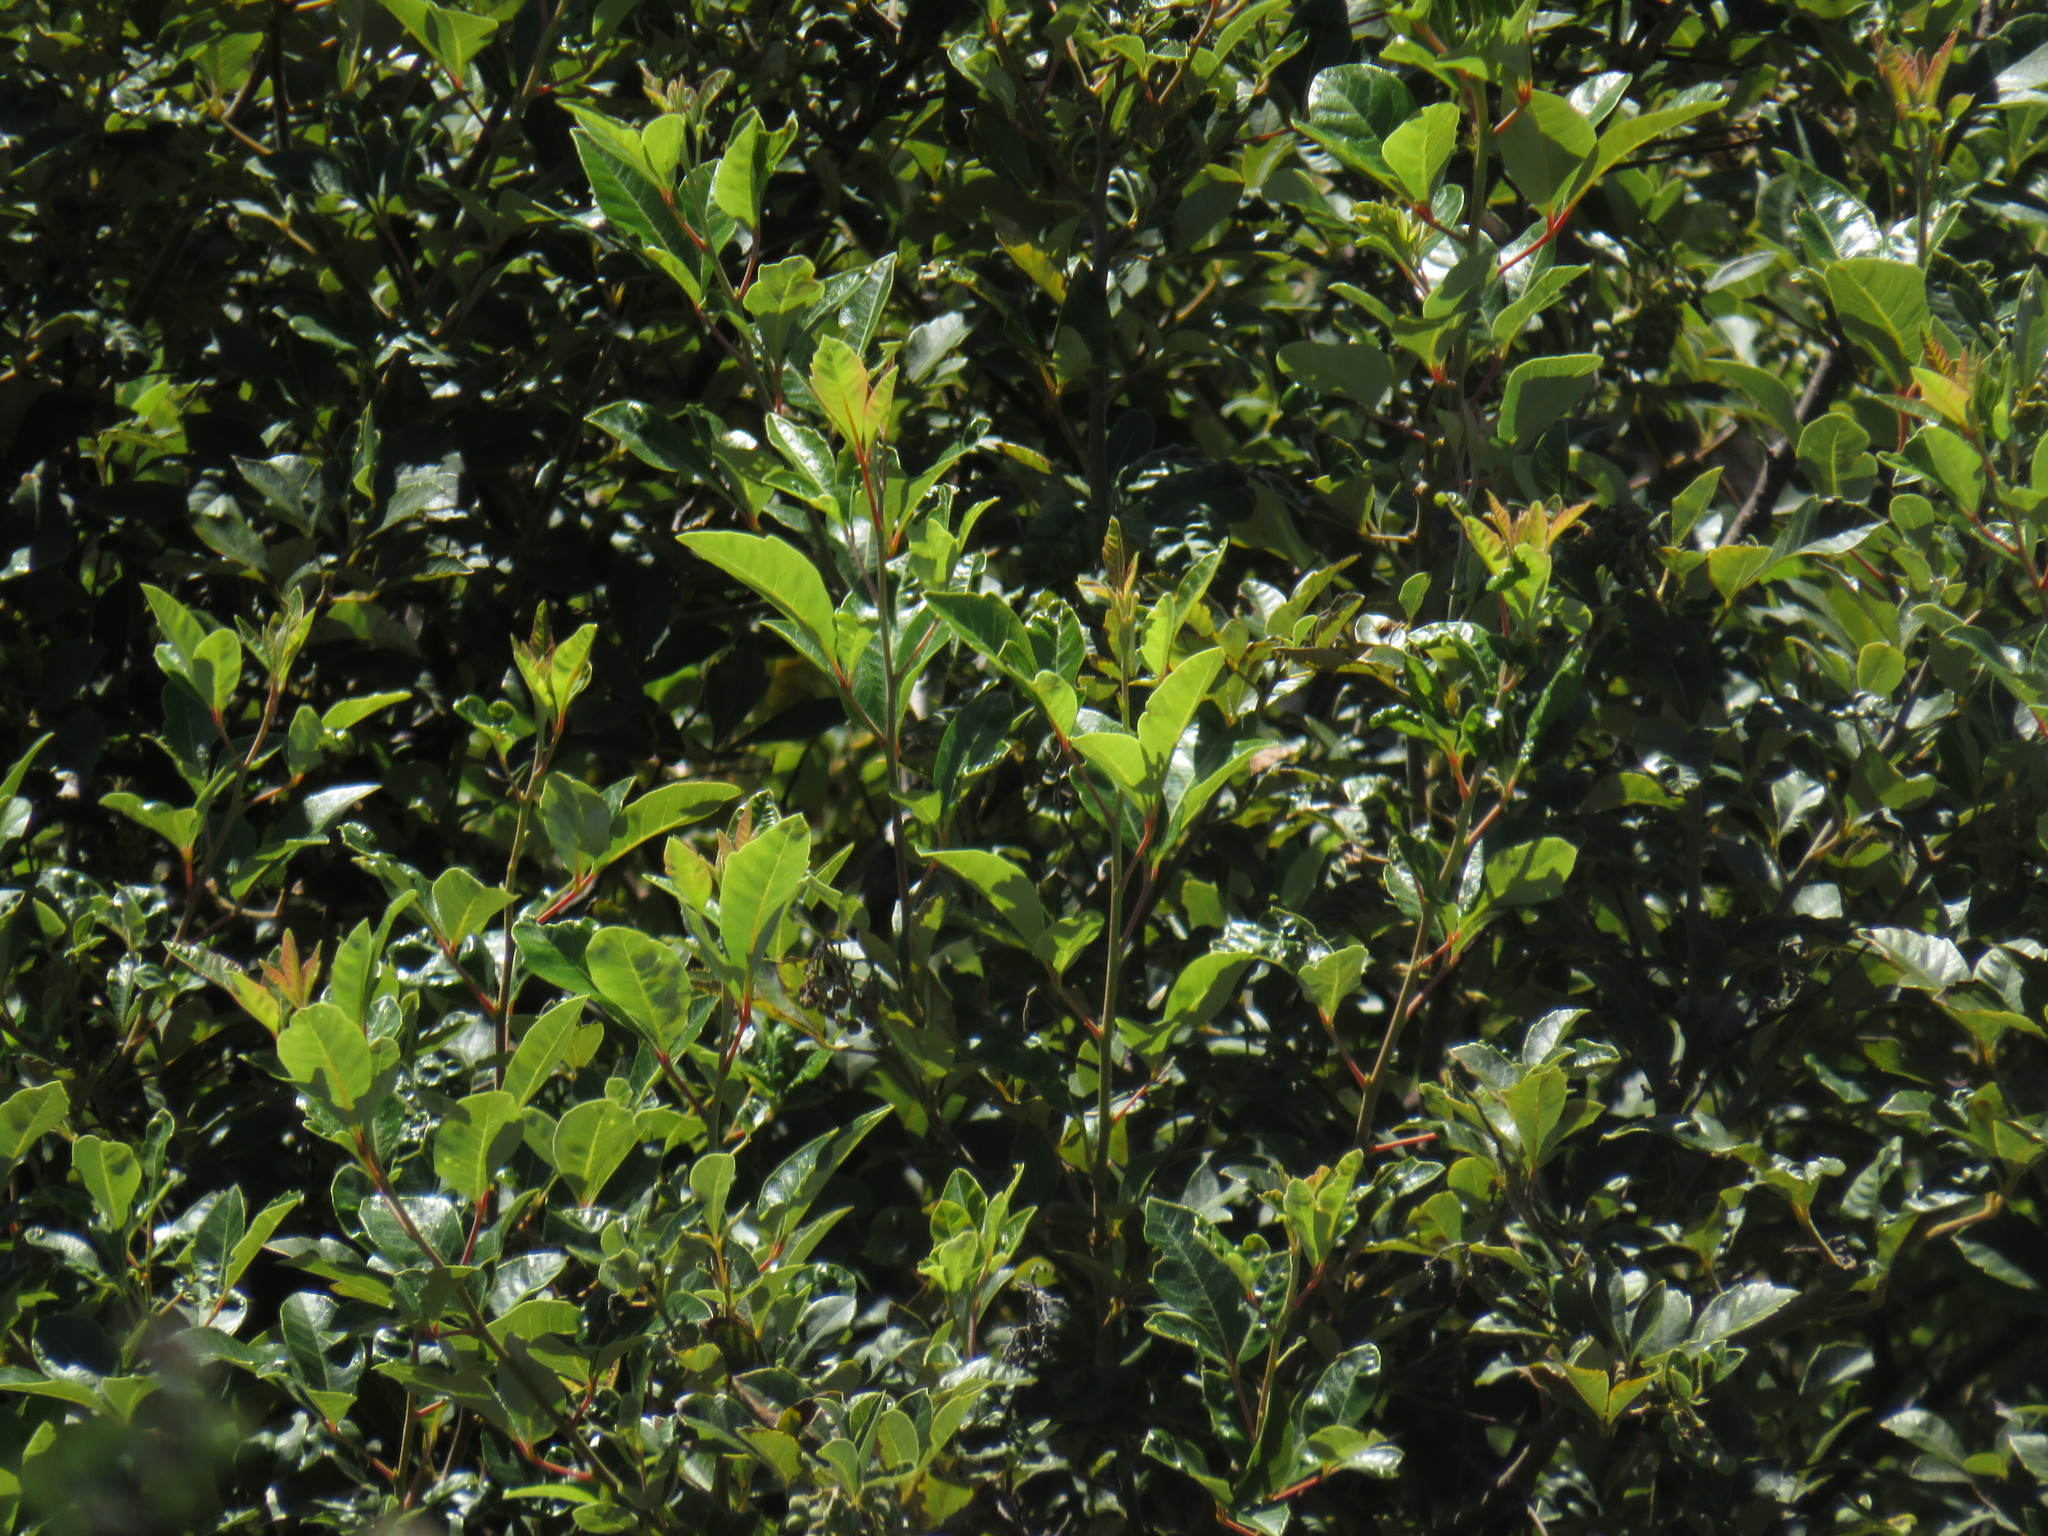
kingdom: Plantae
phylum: Tracheophyta
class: Magnoliopsida
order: Sapindales
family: Anacardiaceae
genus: Searsia
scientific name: Searsia tomentosa
